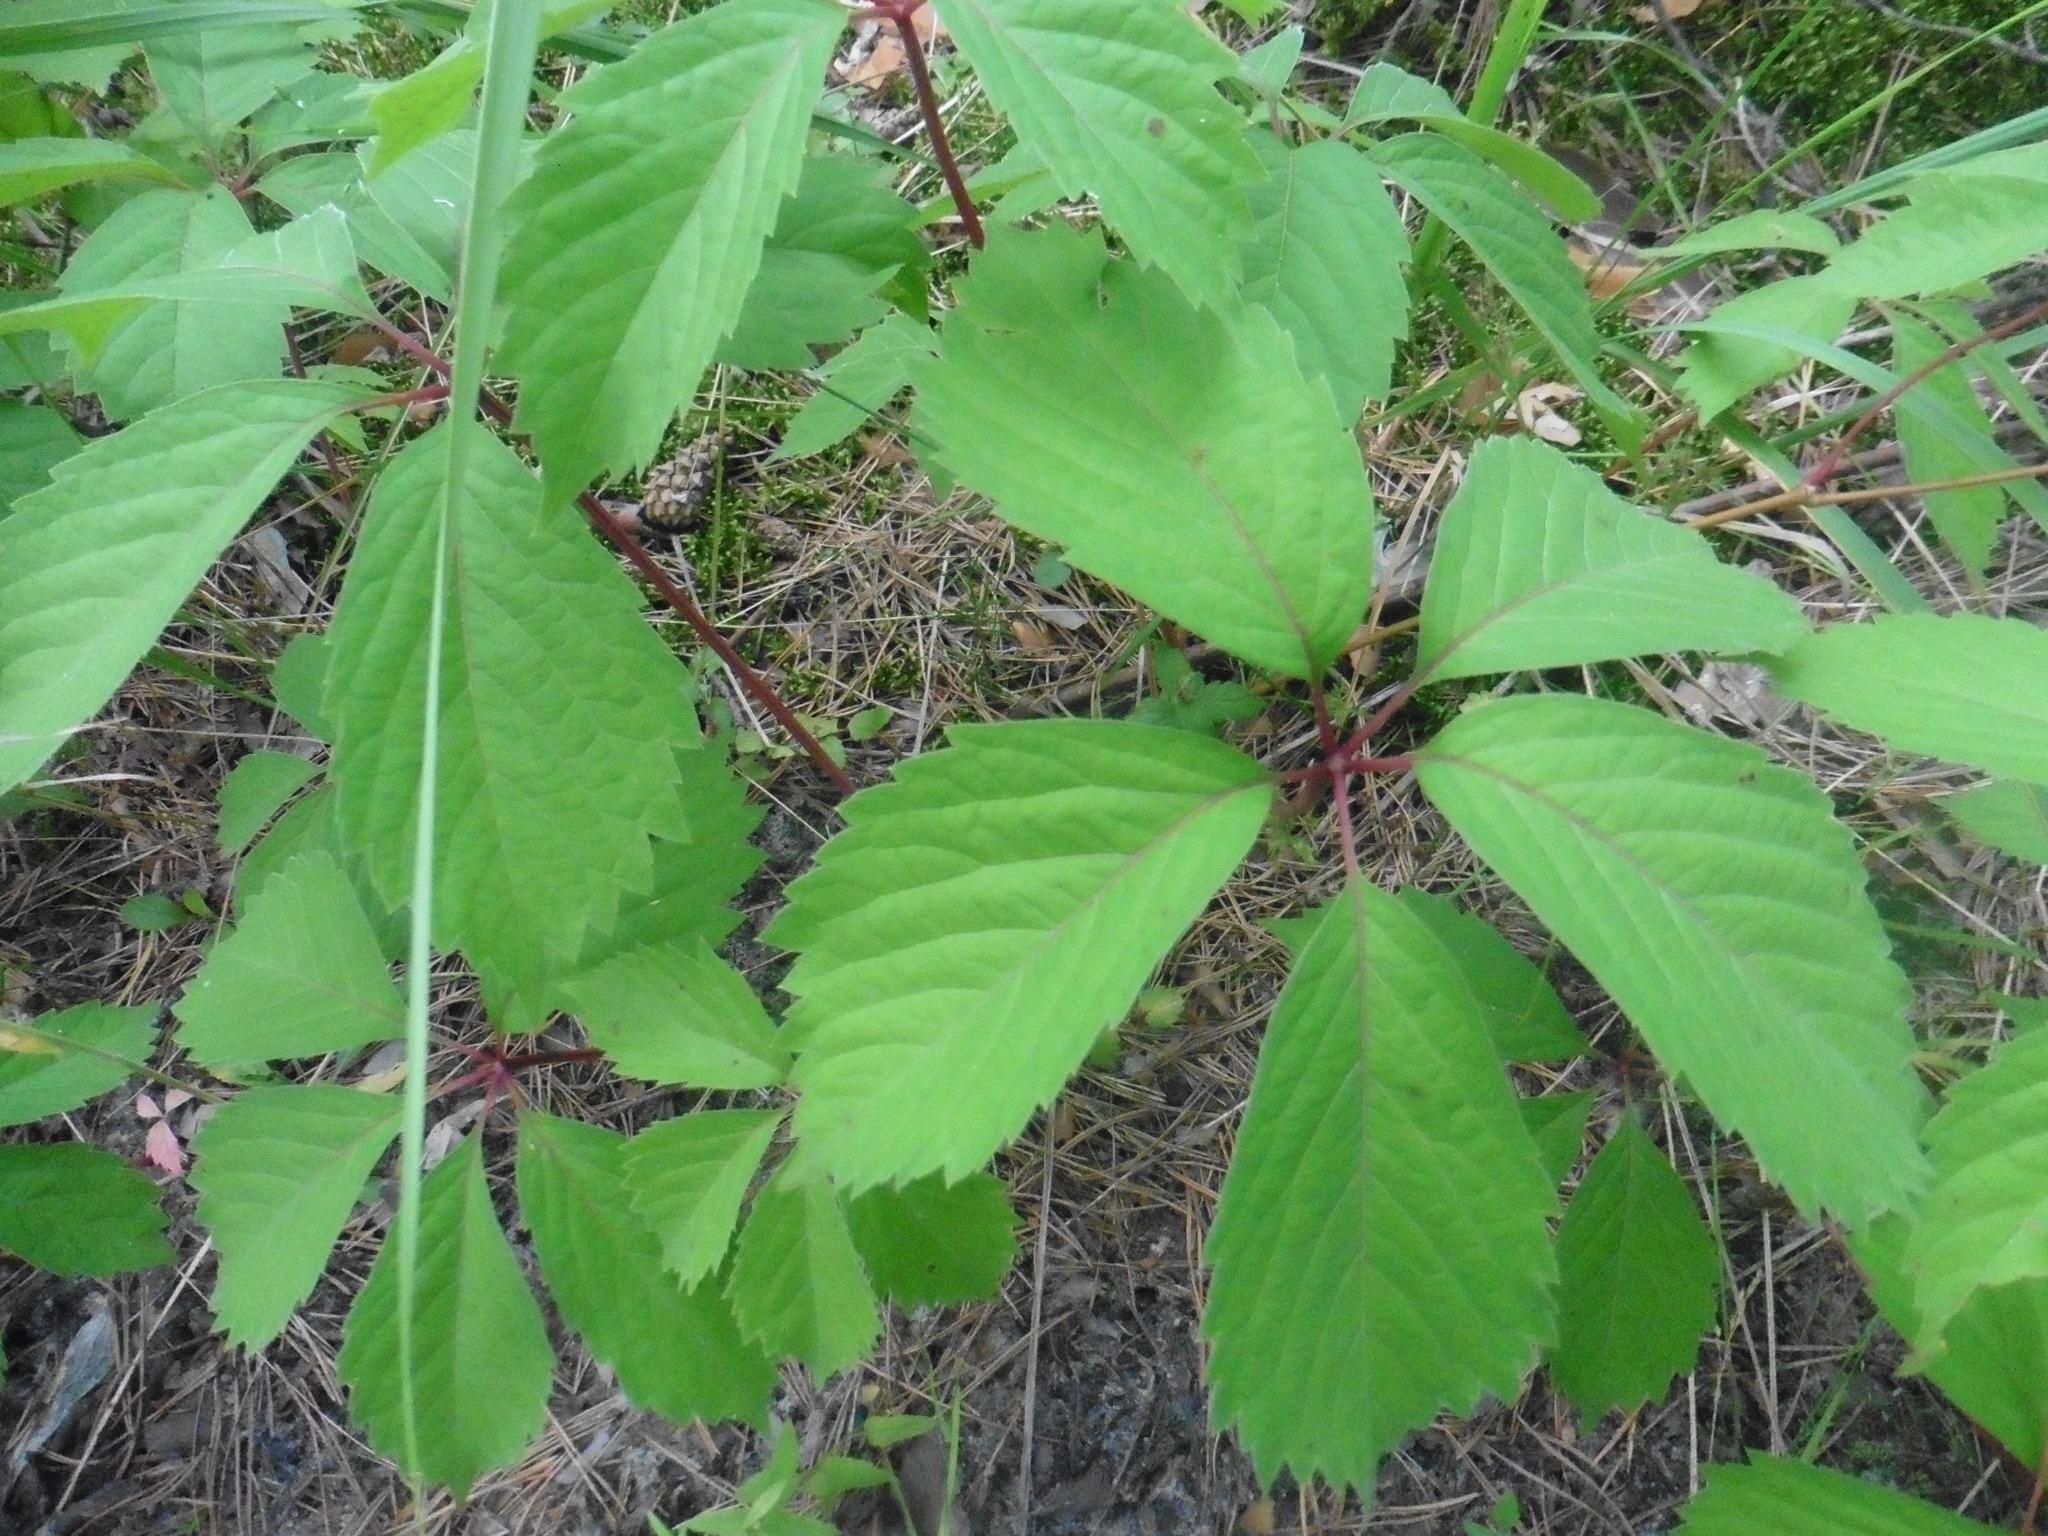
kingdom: Plantae
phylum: Tracheophyta
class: Magnoliopsida
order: Vitales
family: Vitaceae
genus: Parthenocissus
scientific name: Parthenocissus inserta
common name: False virginia-creeper
